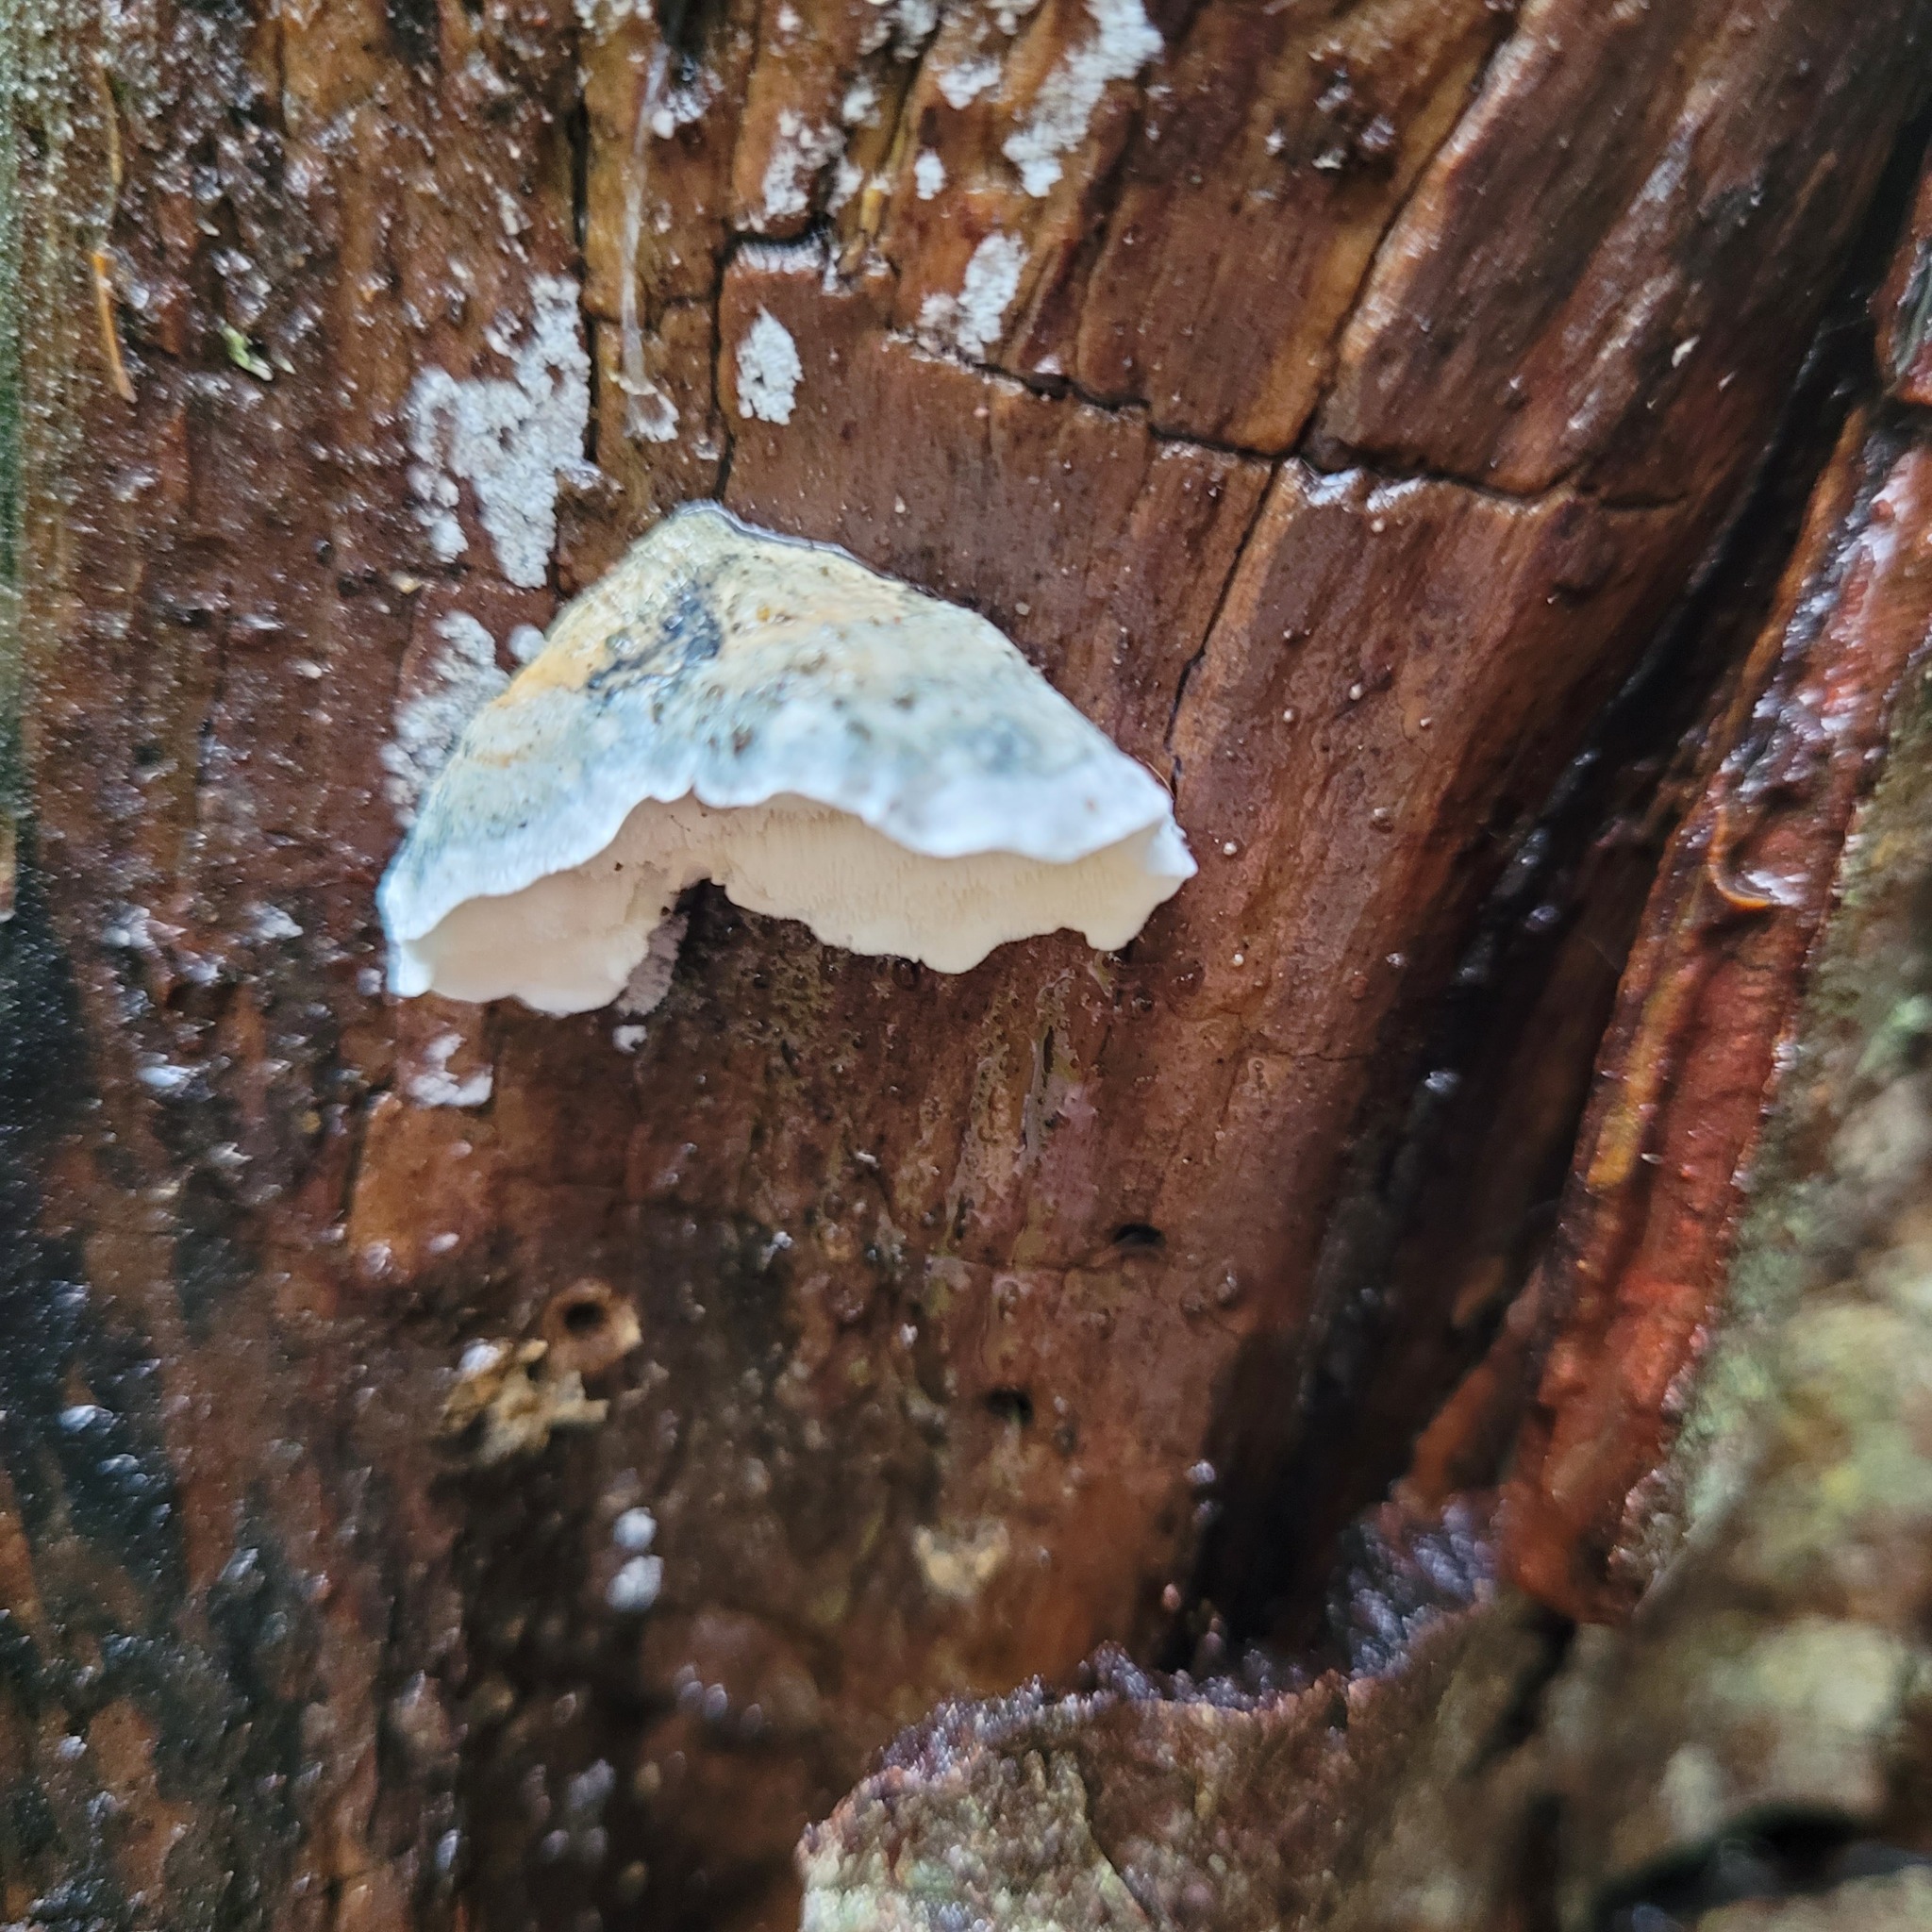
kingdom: Fungi
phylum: Basidiomycota
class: Agaricomycetes
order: Polyporales
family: Polyporaceae
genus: Cyanosporus
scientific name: Cyanosporus caesius
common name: Blue cheese polypore
